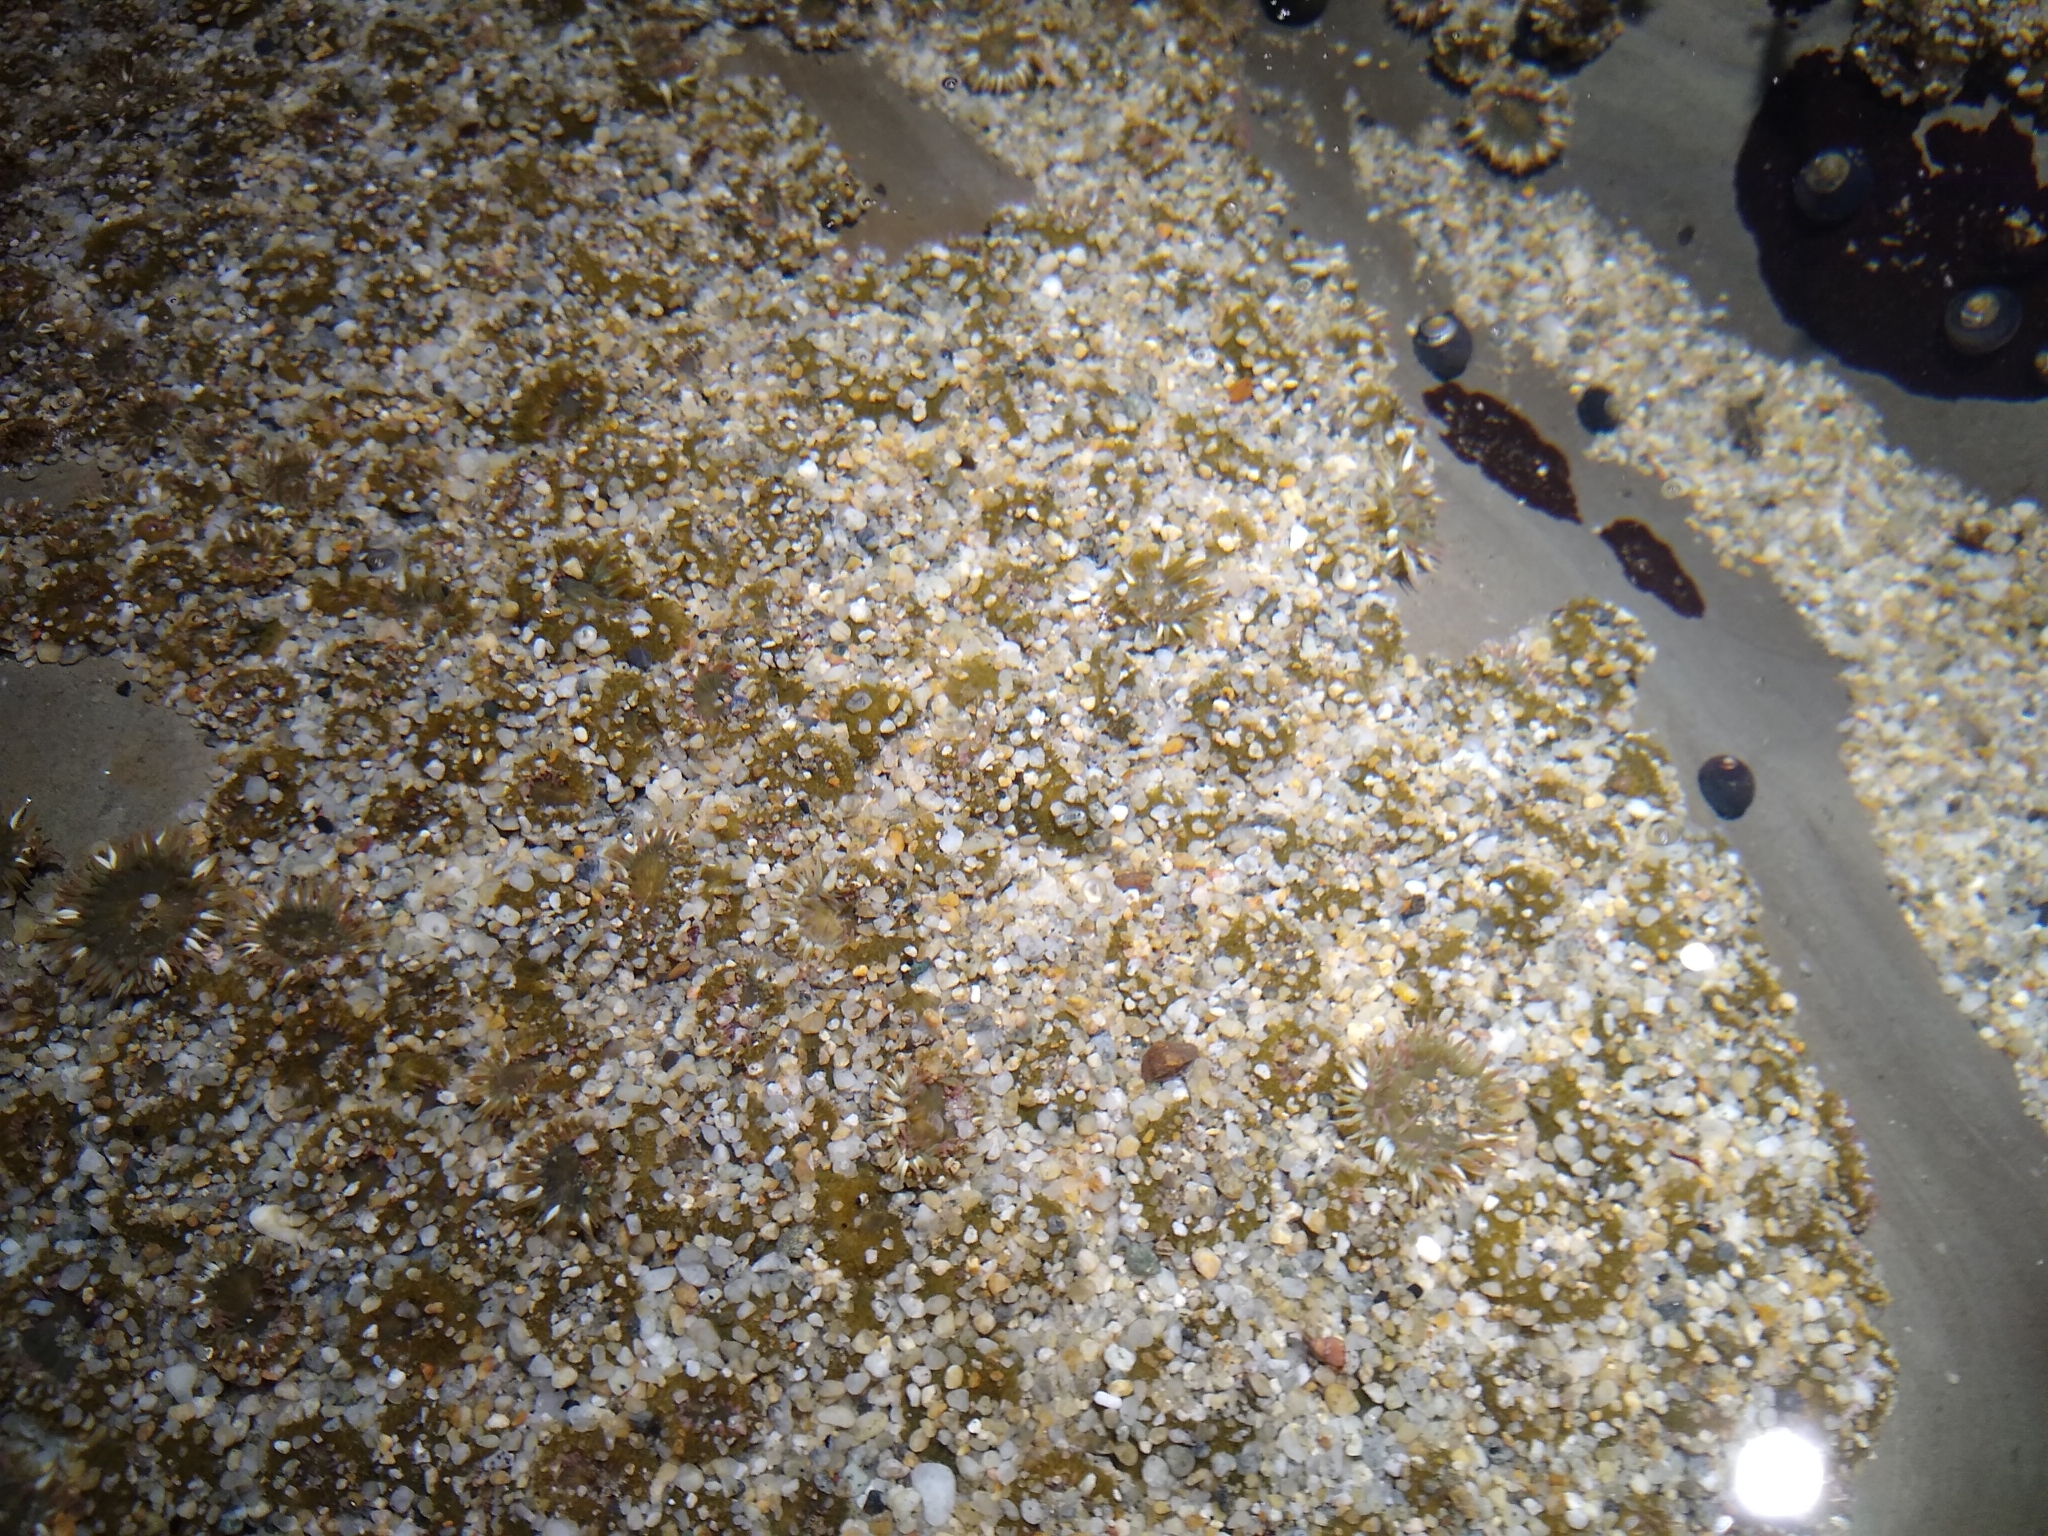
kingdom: Animalia
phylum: Cnidaria
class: Anthozoa
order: Actiniaria
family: Actiniidae
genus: Anthopleura
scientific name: Anthopleura elegantissima
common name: Clonal anemone
